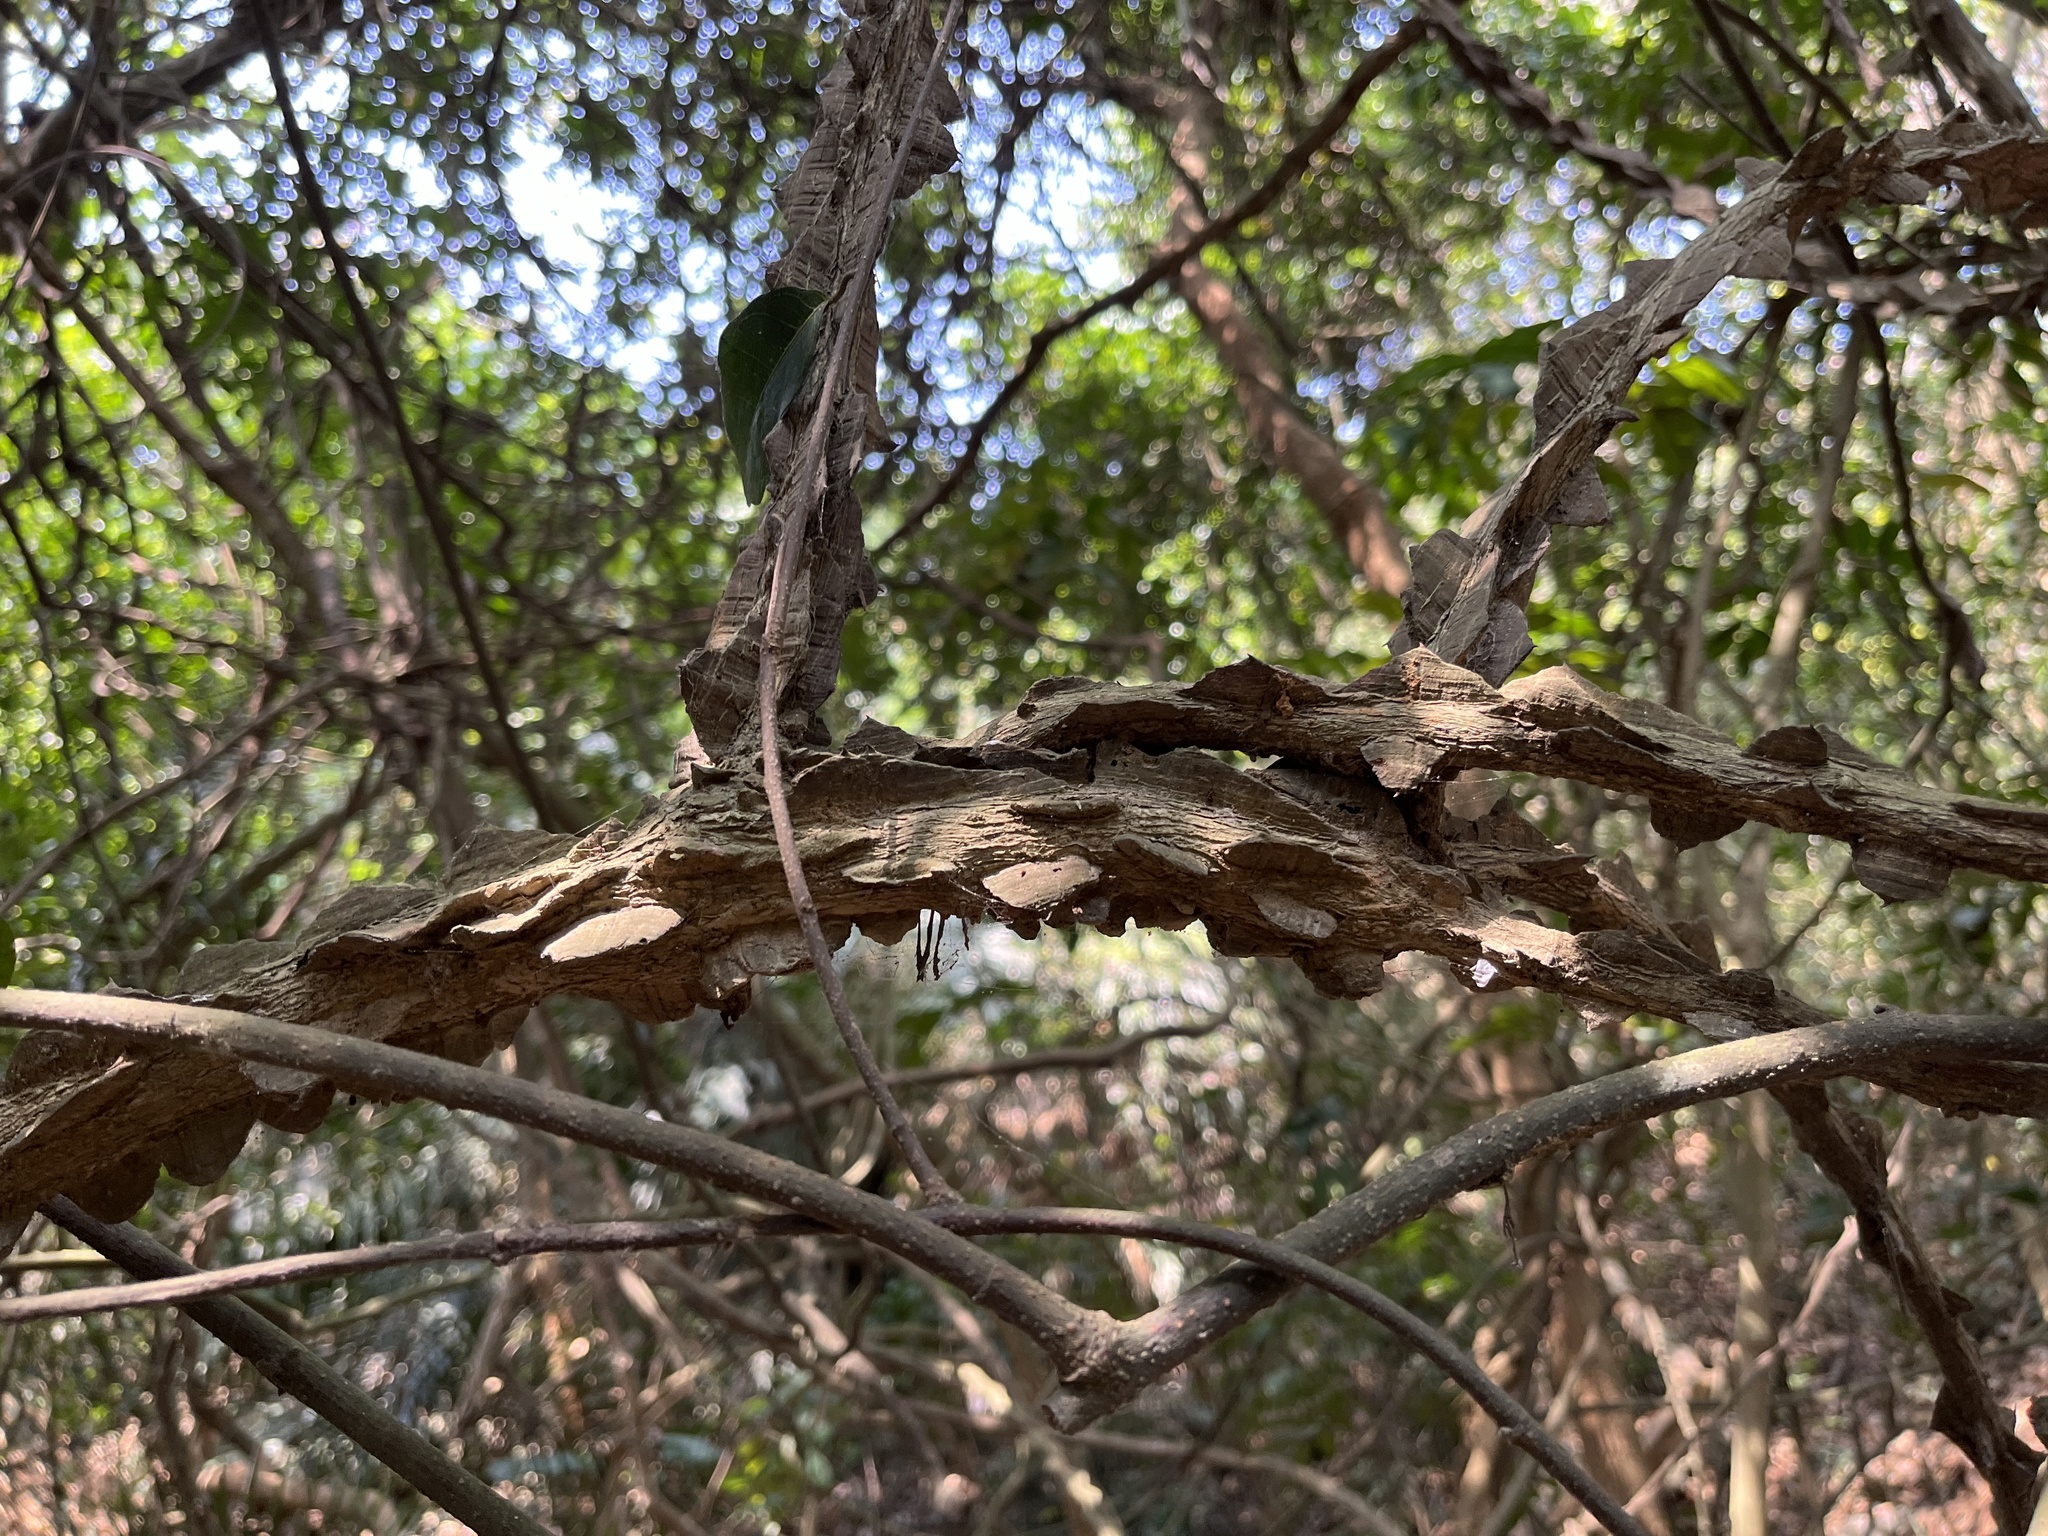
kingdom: Plantae
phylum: Tracheophyta
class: Magnoliopsida
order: Sapindales
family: Rutaceae
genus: Zanthoxylum
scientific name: Zanthoxylum nitidum
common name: Shiny-leaf prickly-ash
